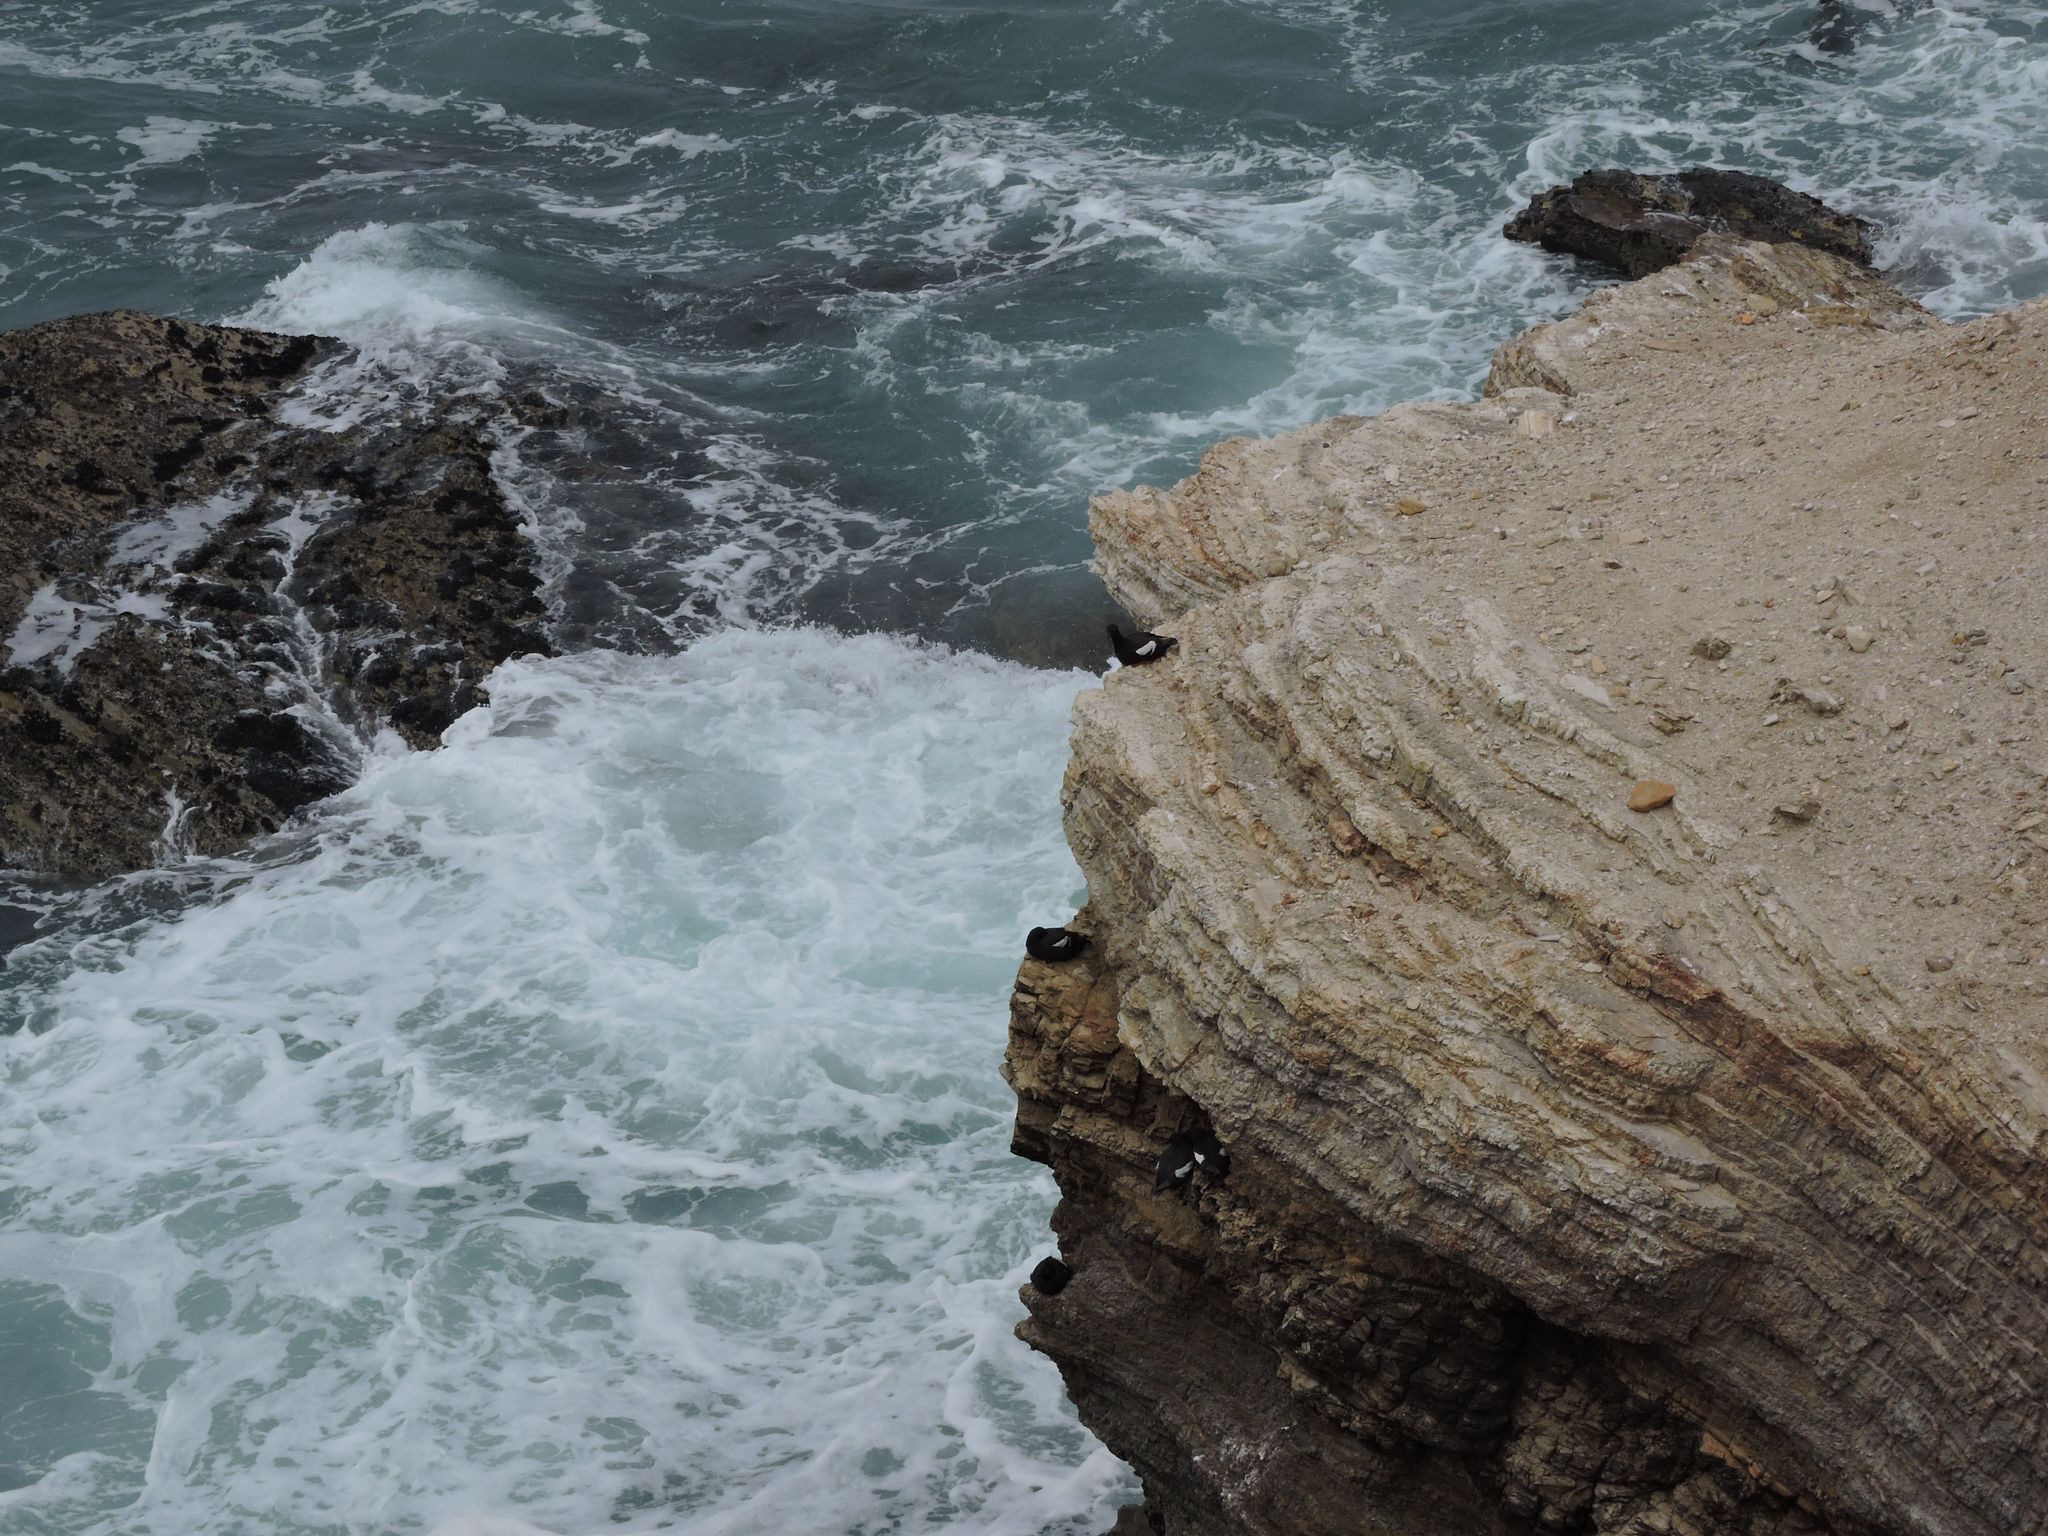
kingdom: Animalia
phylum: Chordata
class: Aves
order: Charadriiformes
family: Alcidae
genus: Cepphus
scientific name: Cepphus columba
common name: Pigeon guillemot
